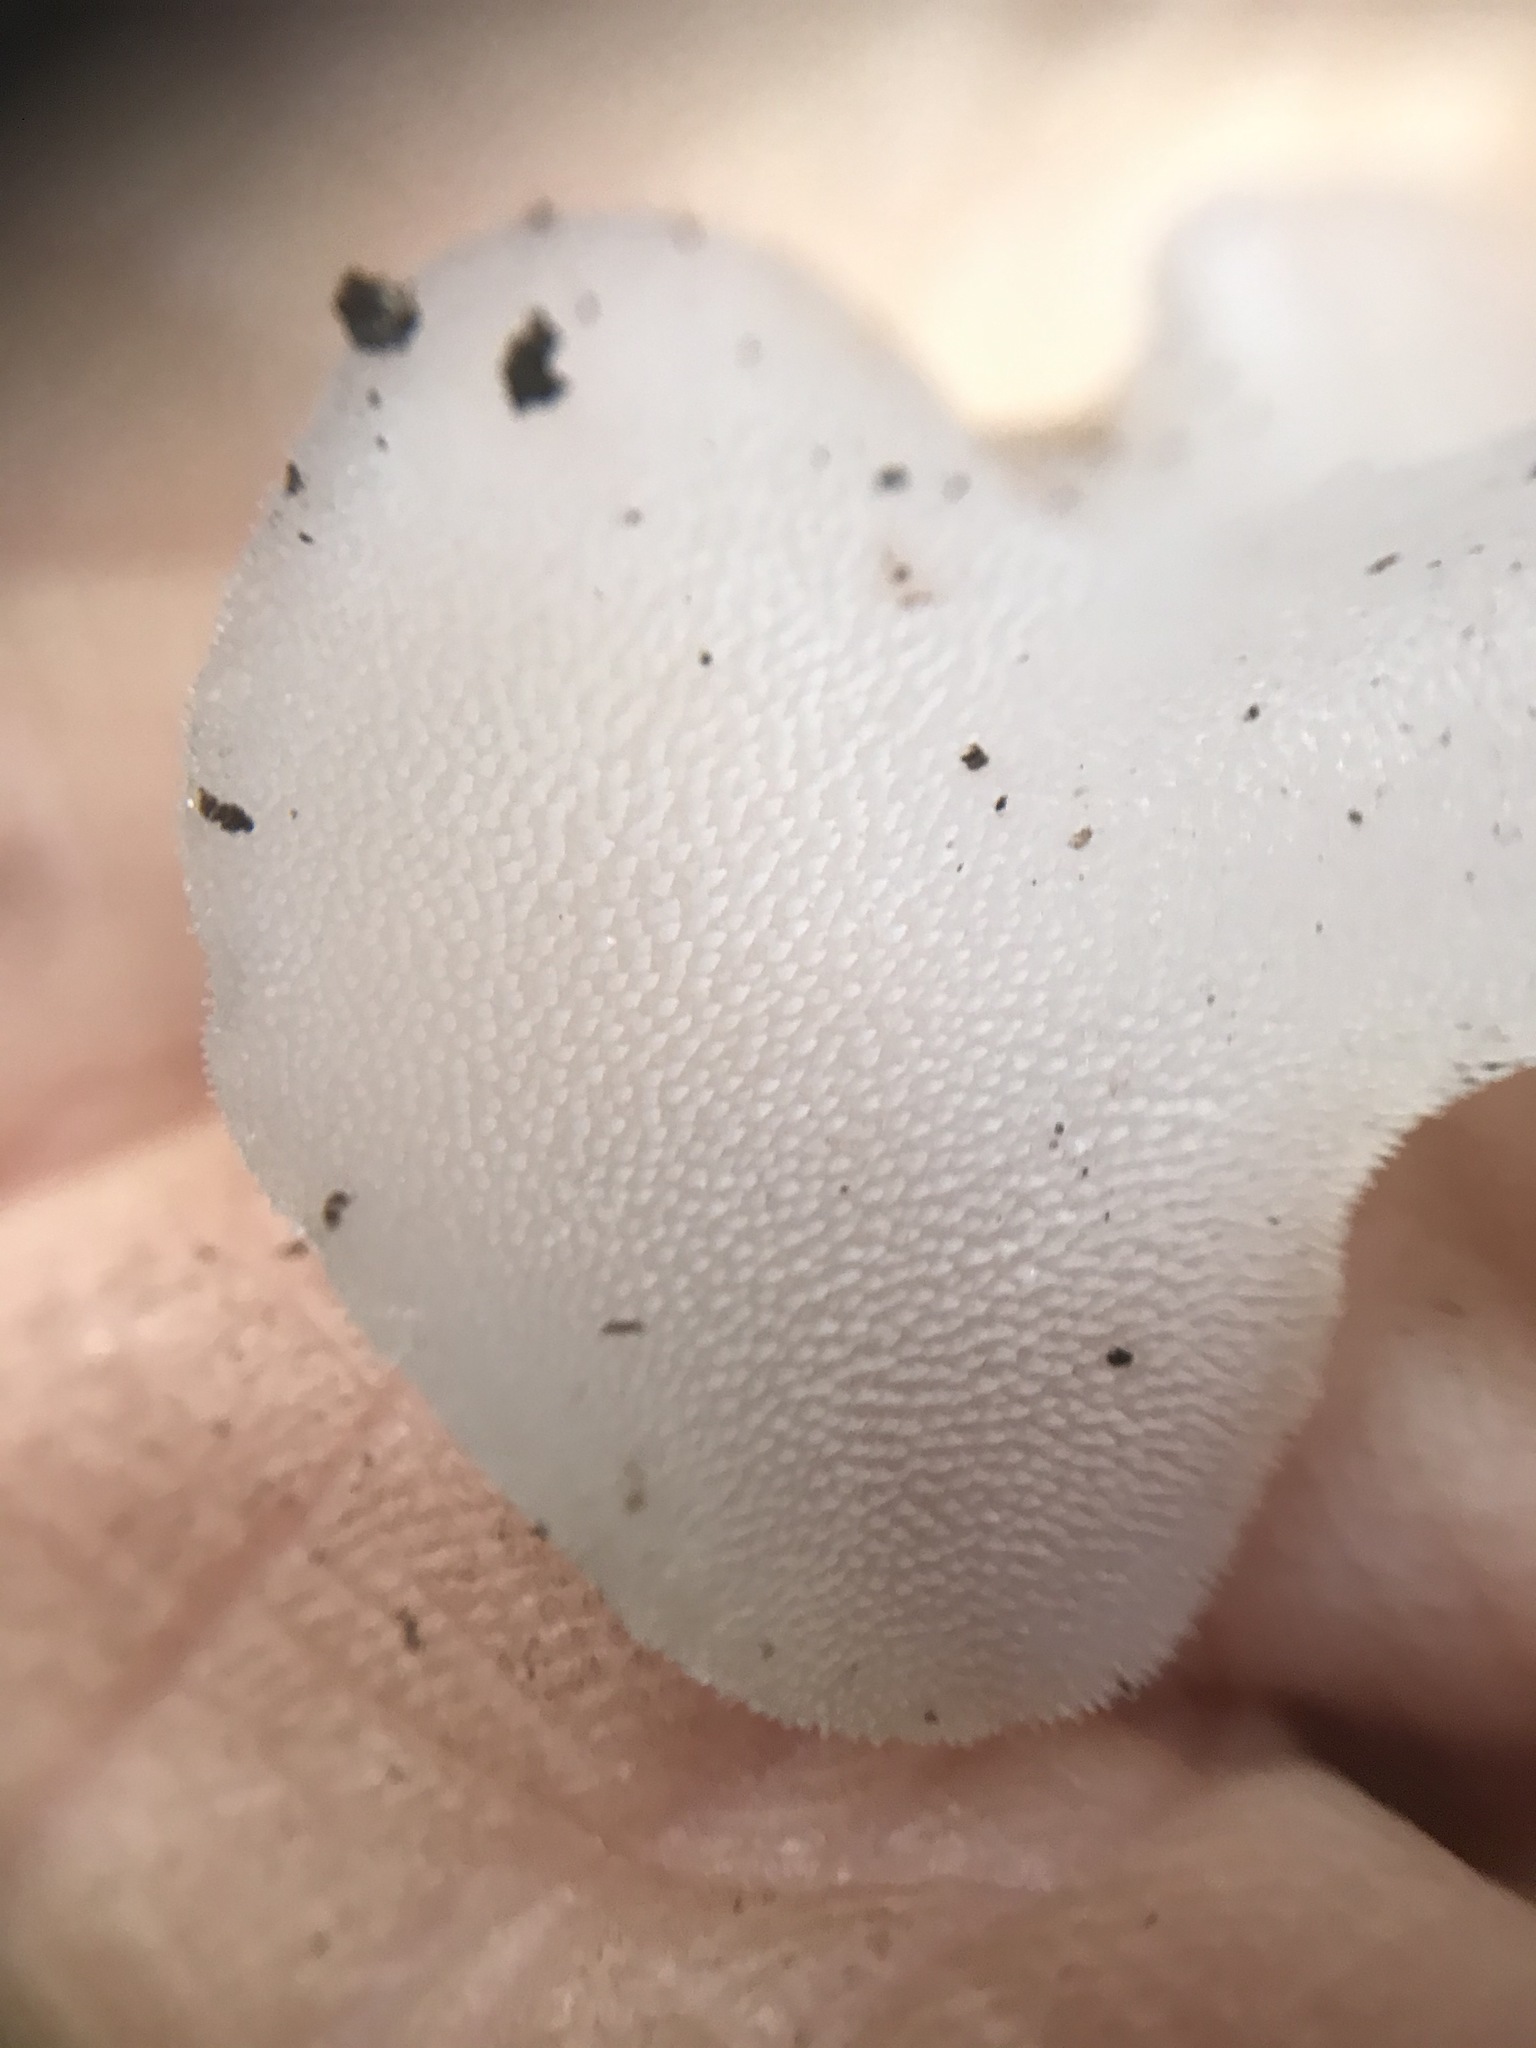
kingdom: Fungi
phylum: Basidiomycota
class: Agaricomycetes
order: Auriculariales
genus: Pseudohydnum
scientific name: Pseudohydnum gelatinosum
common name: Jelly tongue
